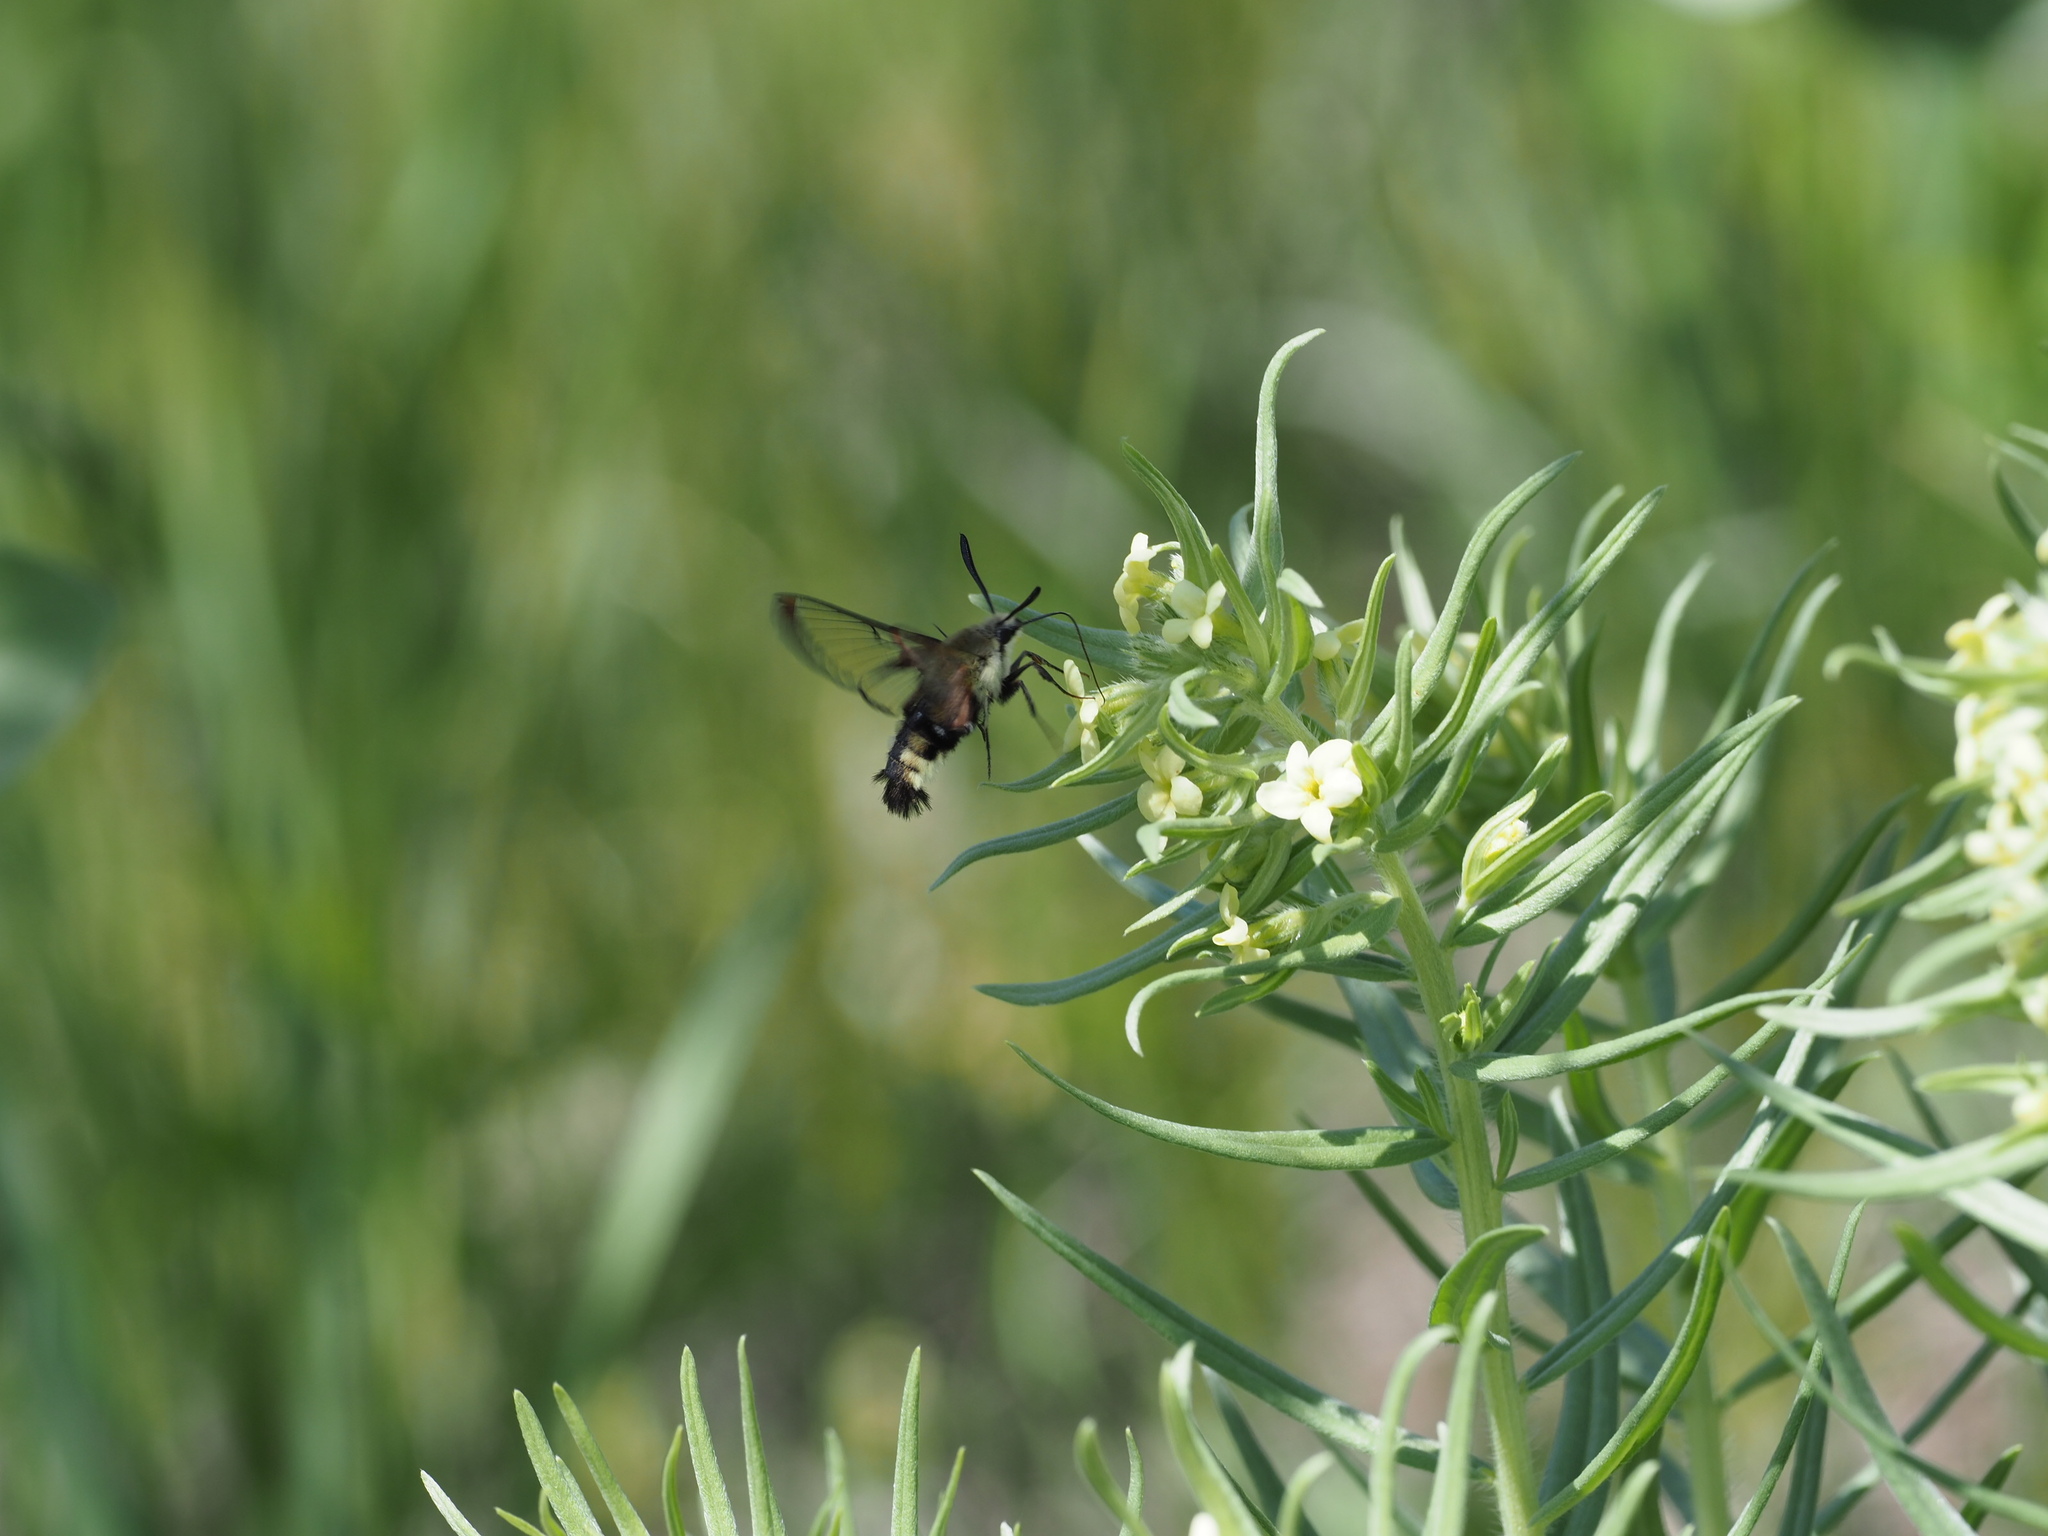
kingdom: Animalia
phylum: Arthropoda
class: Insecta
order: Lepidoptera
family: Sphingidae
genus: Hemaris
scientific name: Hemaris thetis
